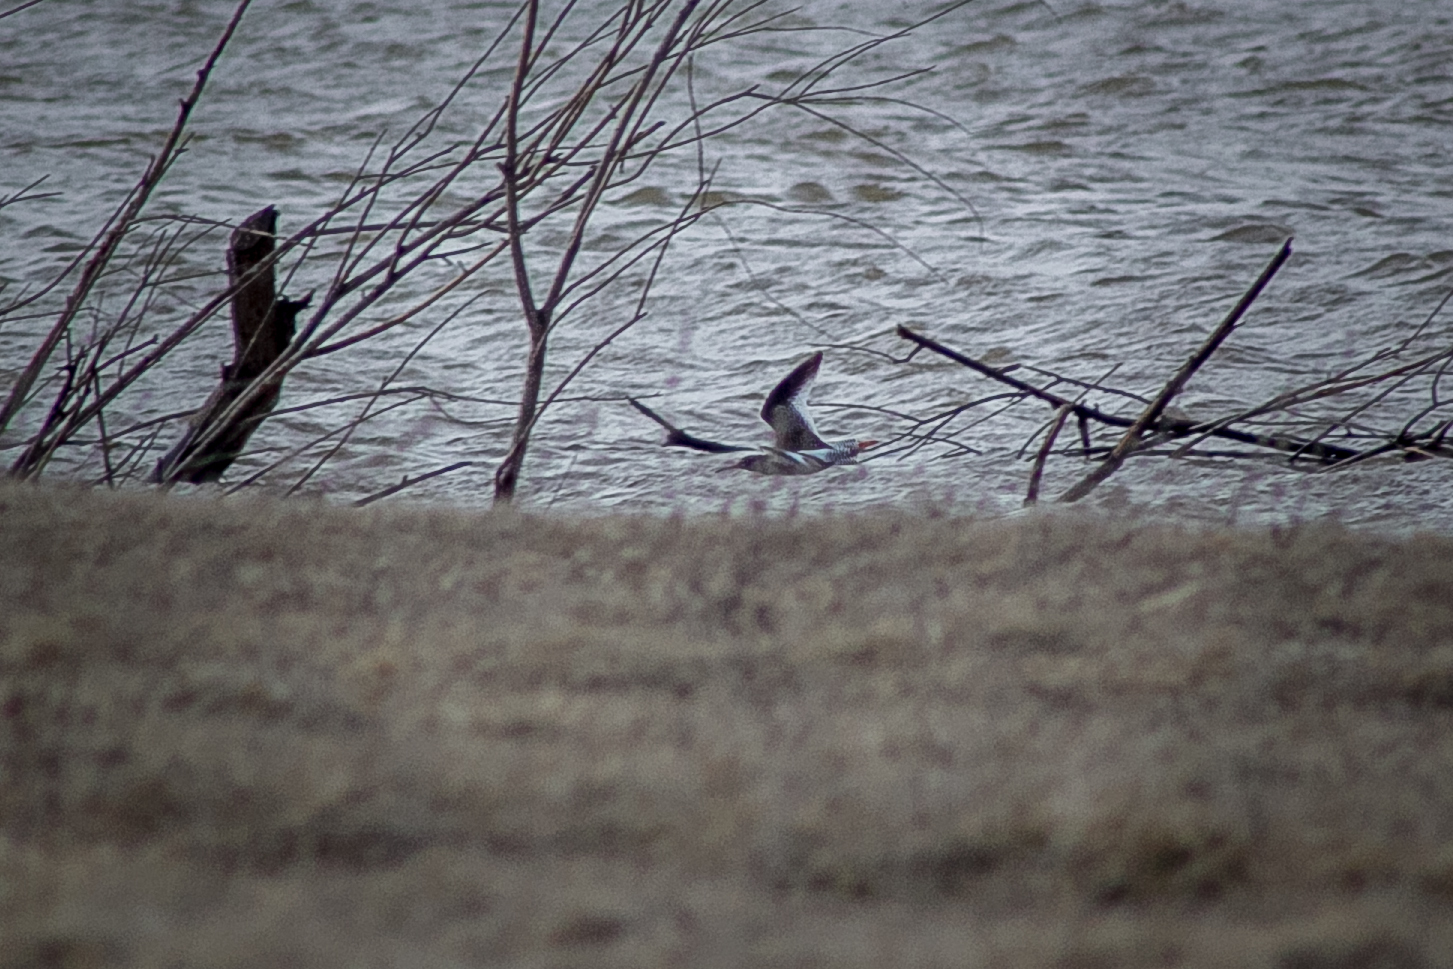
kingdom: Animalia
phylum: Chordata
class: Aves
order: Charadriiformes
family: Scolopacidae
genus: Tringa
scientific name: Tringa totanus
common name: Common redshank
